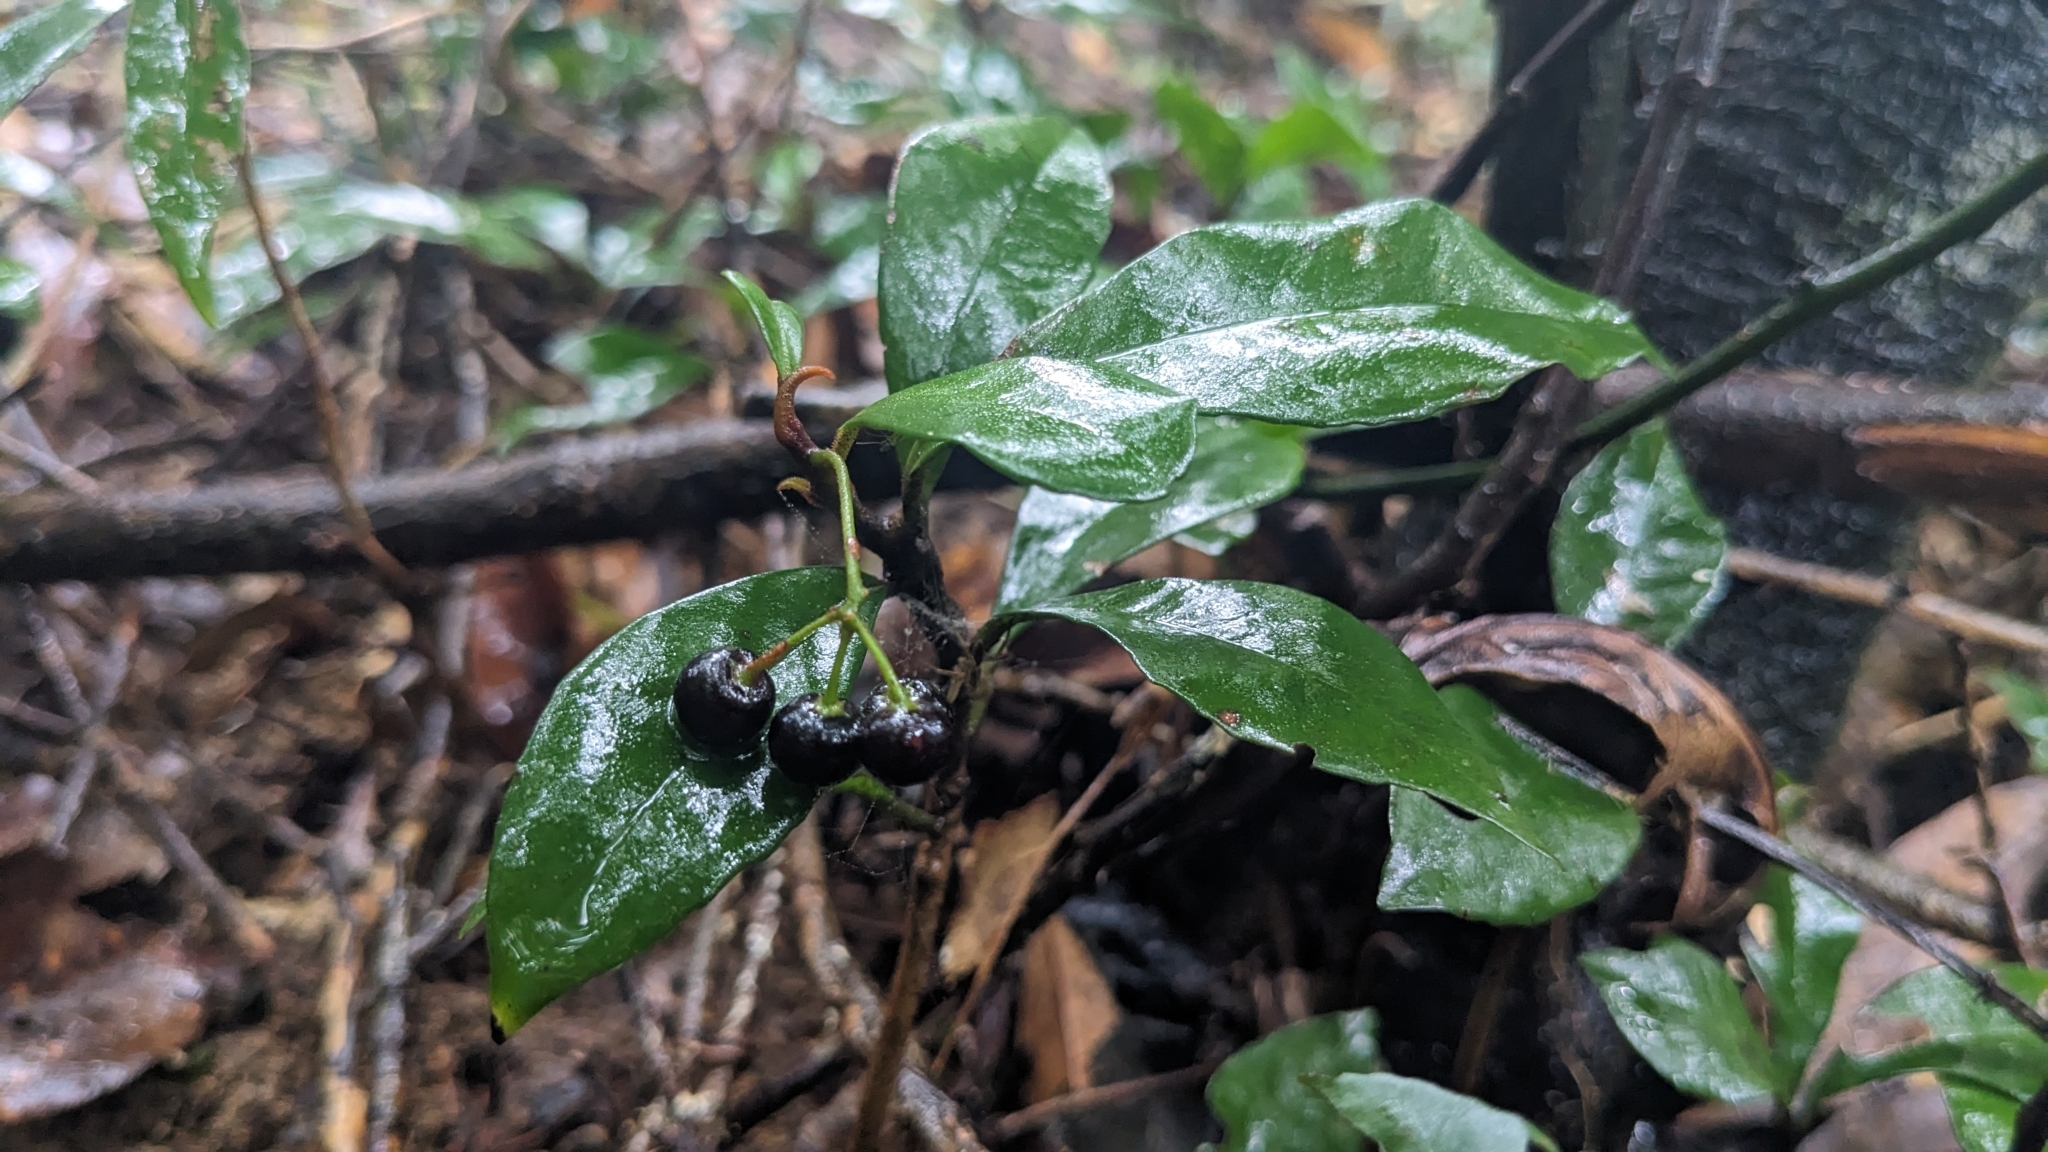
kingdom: Plantae
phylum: Tracheophyta
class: Magnoliopsida
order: Ericales
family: Primulaceae
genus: Ardisia
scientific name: Ardisia cymosa
